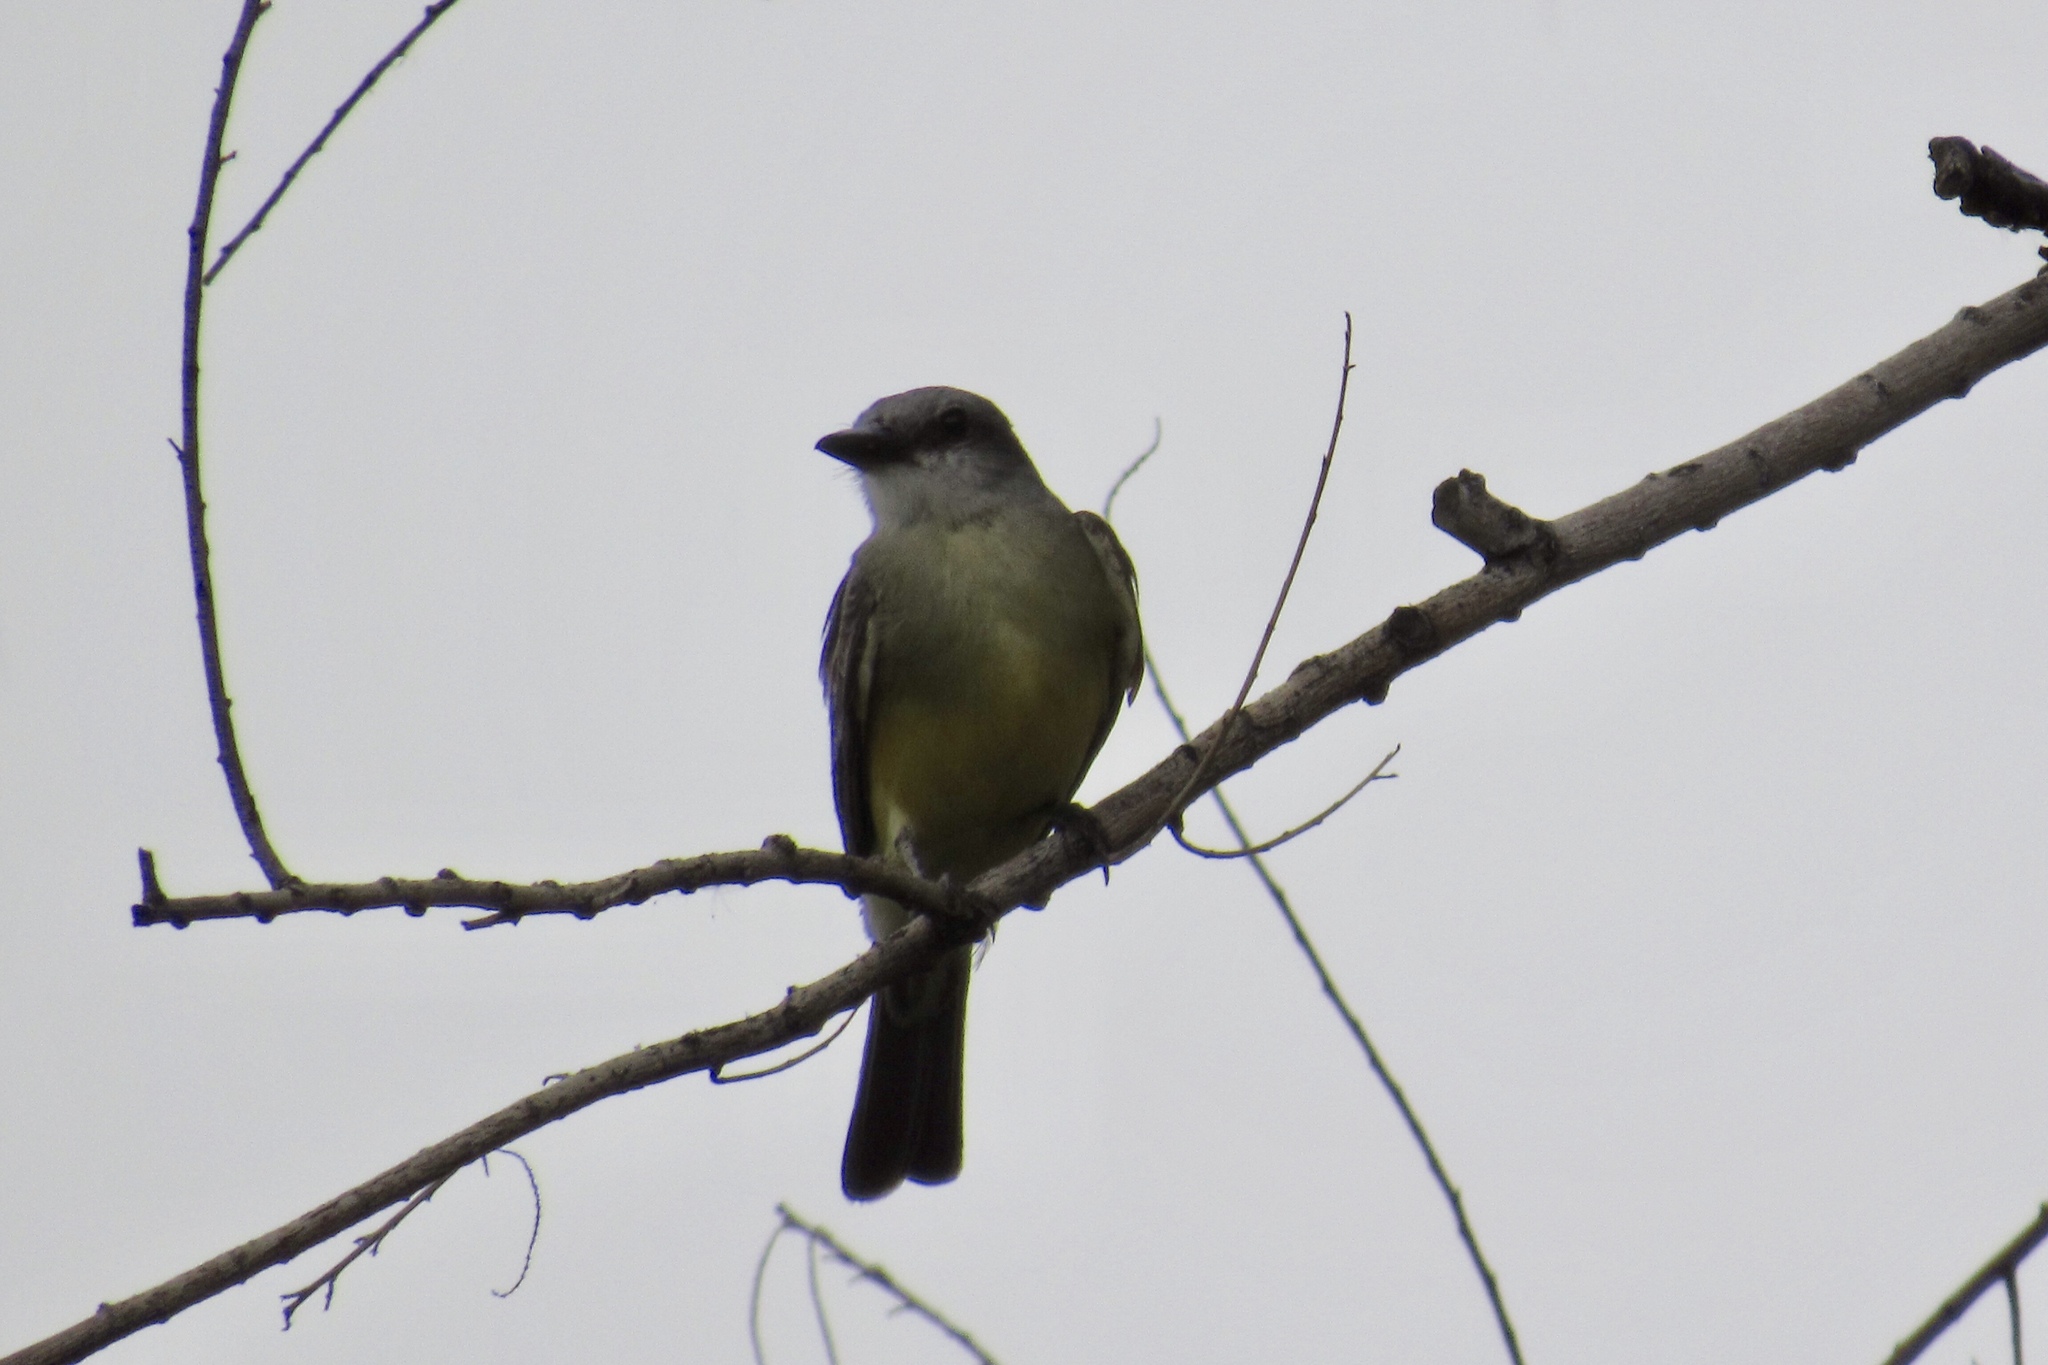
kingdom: Animalia
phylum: Chordata
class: Aves
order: Passeriformes
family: Tyrannidae
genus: Tyrannus
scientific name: Tyrannus melancholicus
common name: Tropical kingbird
